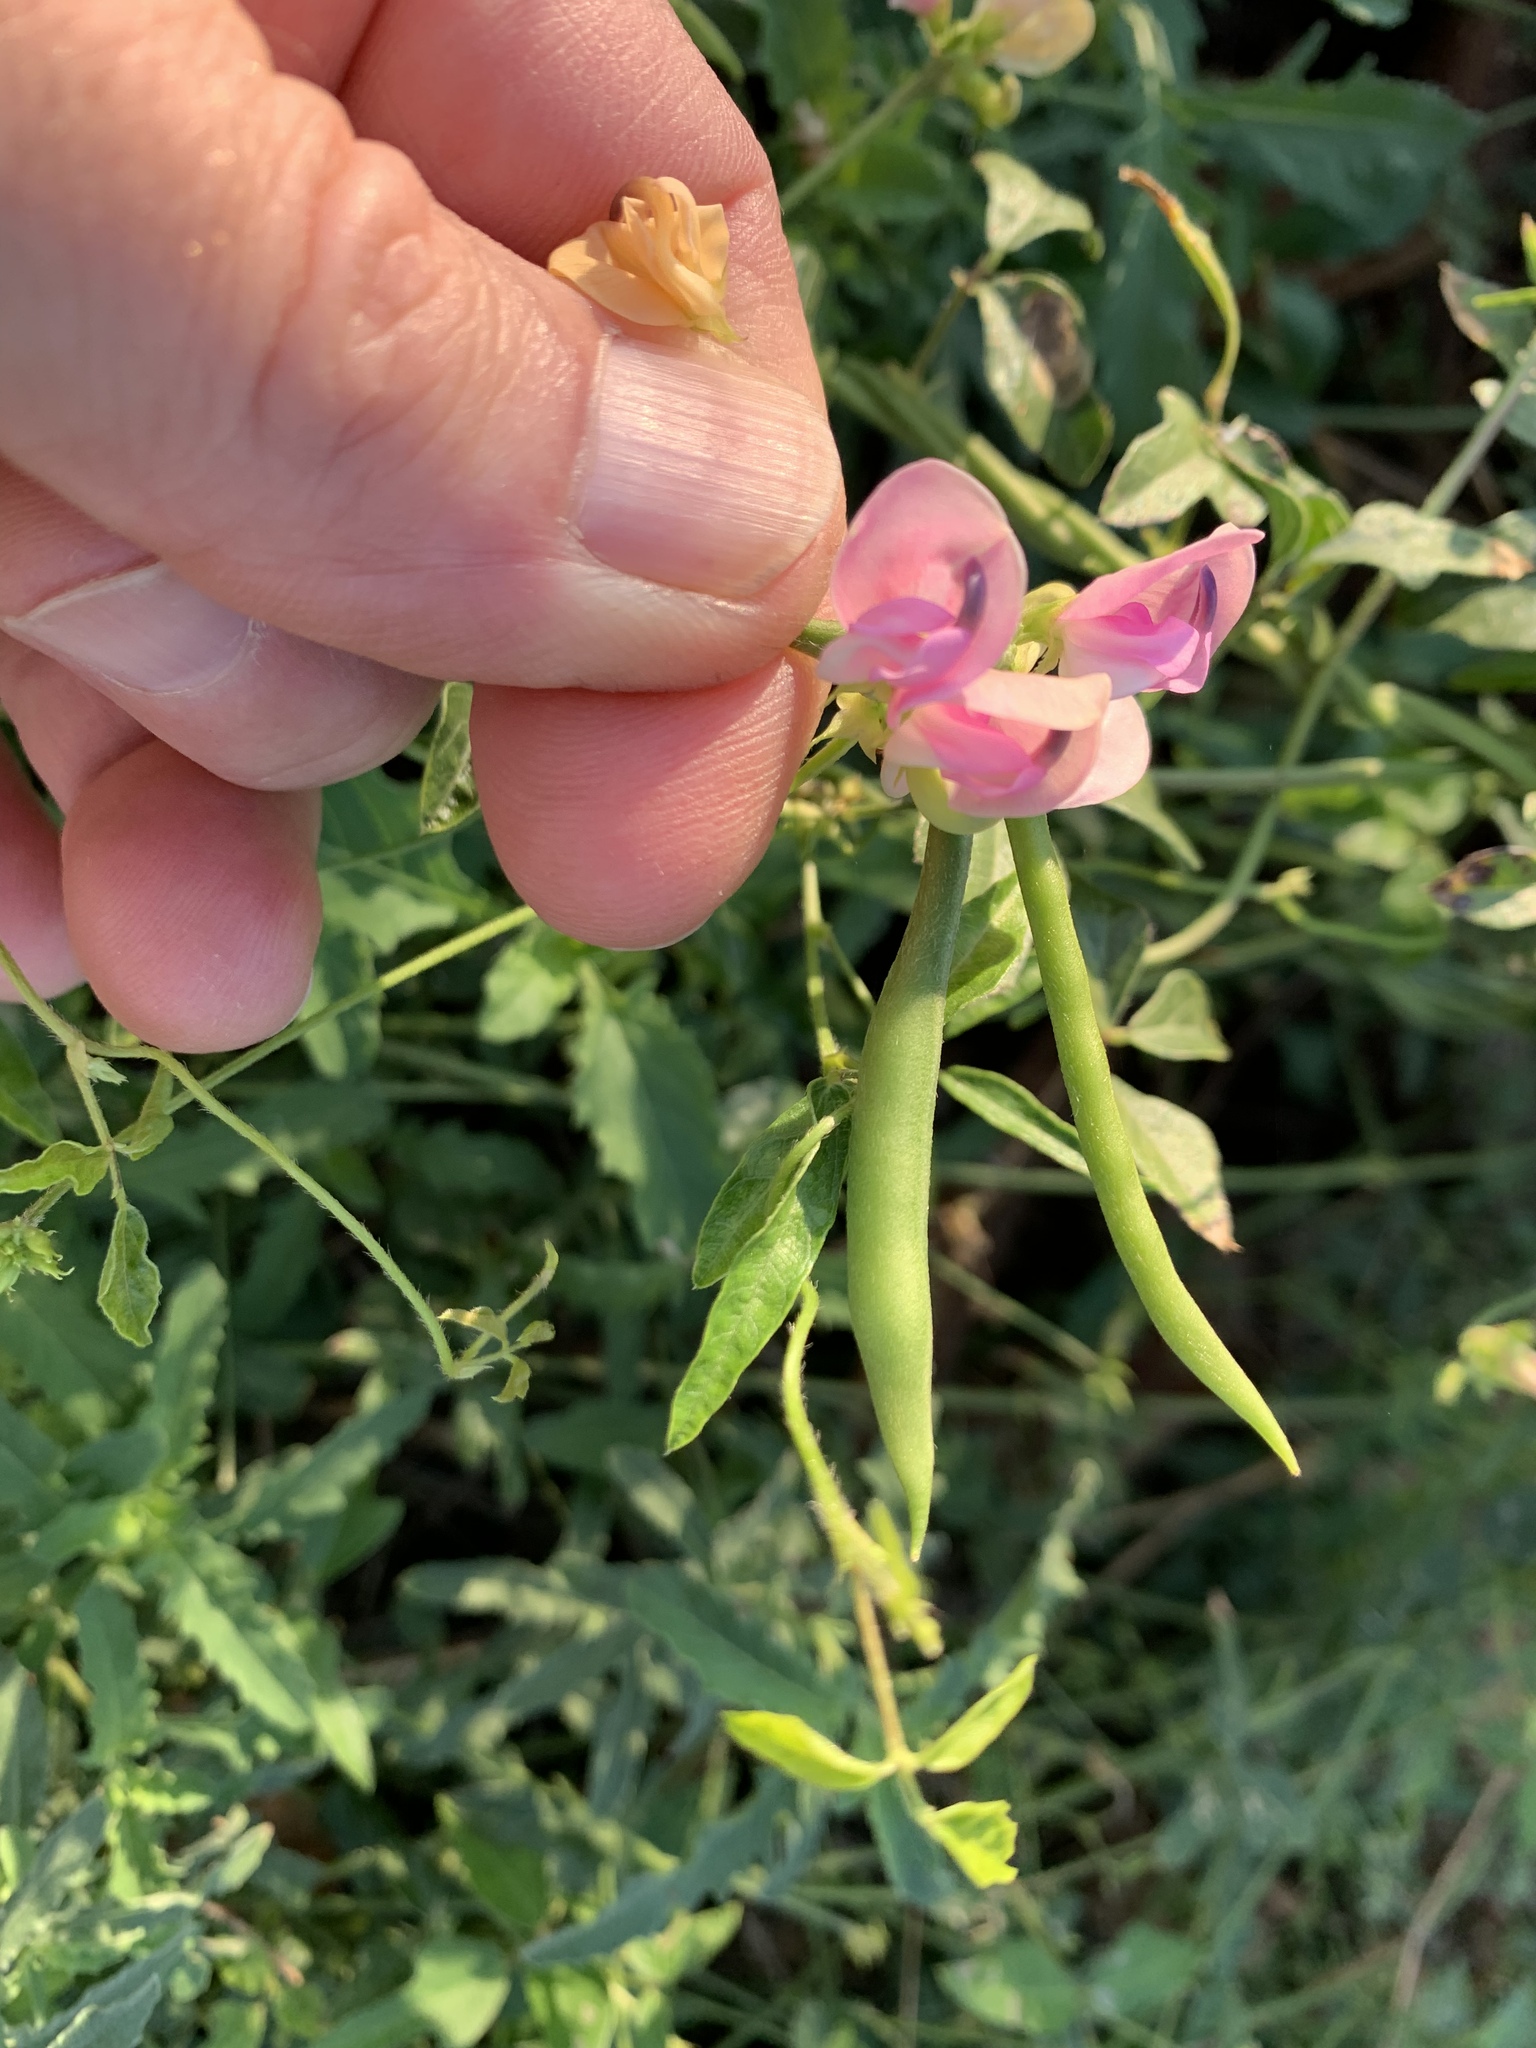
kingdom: Plantae
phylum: Tracheophyta
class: Magnoliopsida
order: Fabales
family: Fabaceae
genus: Strophostyles
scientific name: Strophostyles helvola
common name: Trailing wild bean
